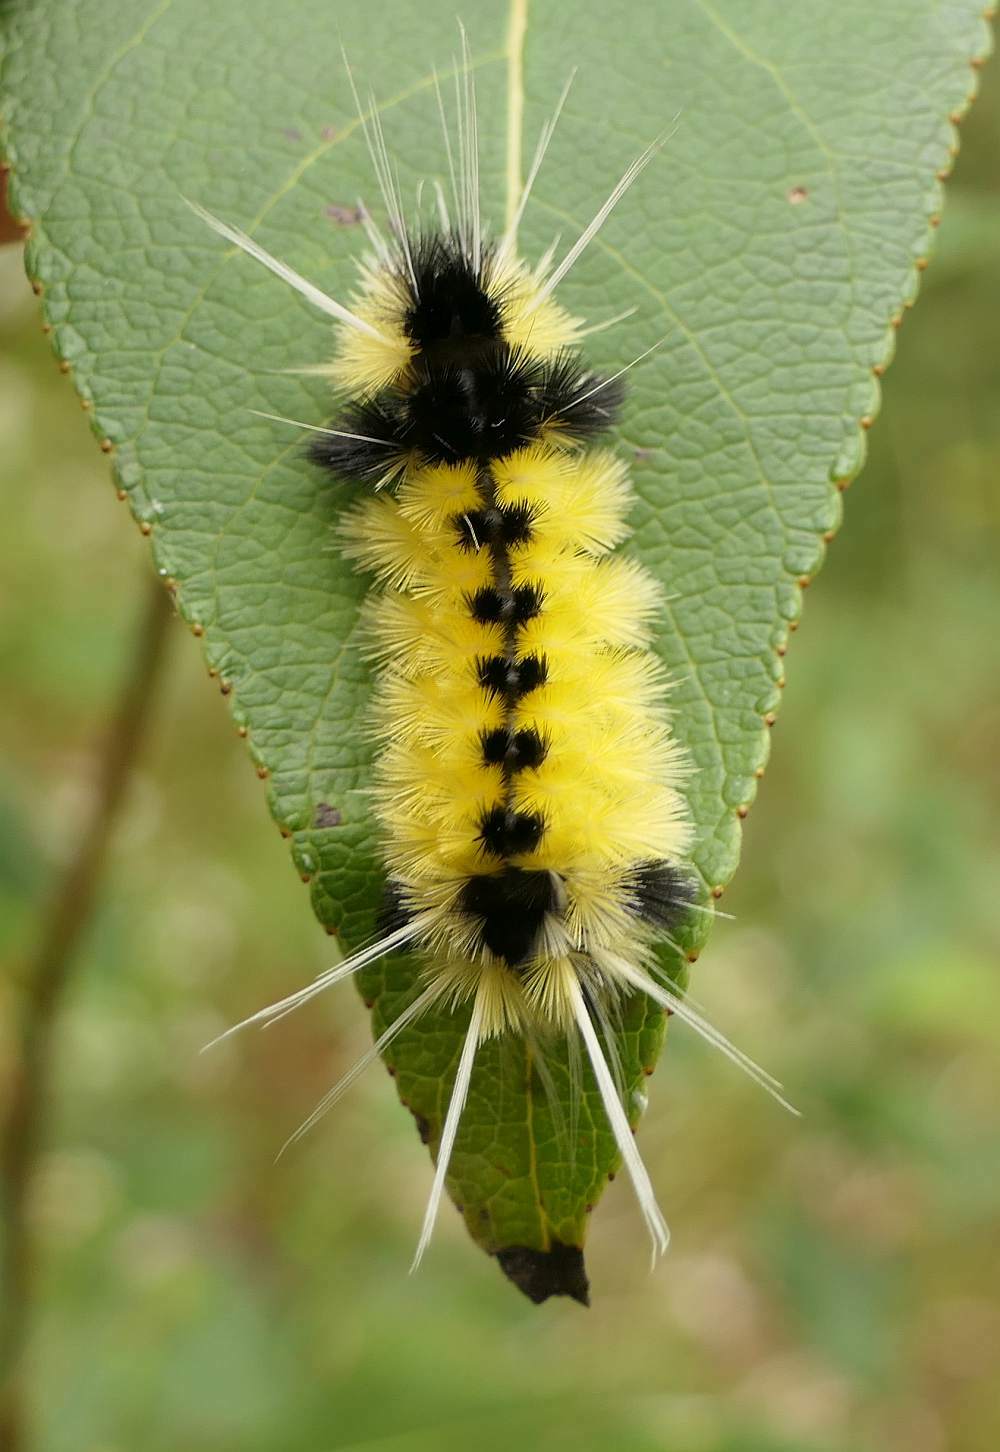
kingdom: Animalia
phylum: Arthropoda
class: Insecta
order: Lepidoptera
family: Erebidae
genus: Lophocampa
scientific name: Lophocampa maculata
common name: Spotted tussock moth
